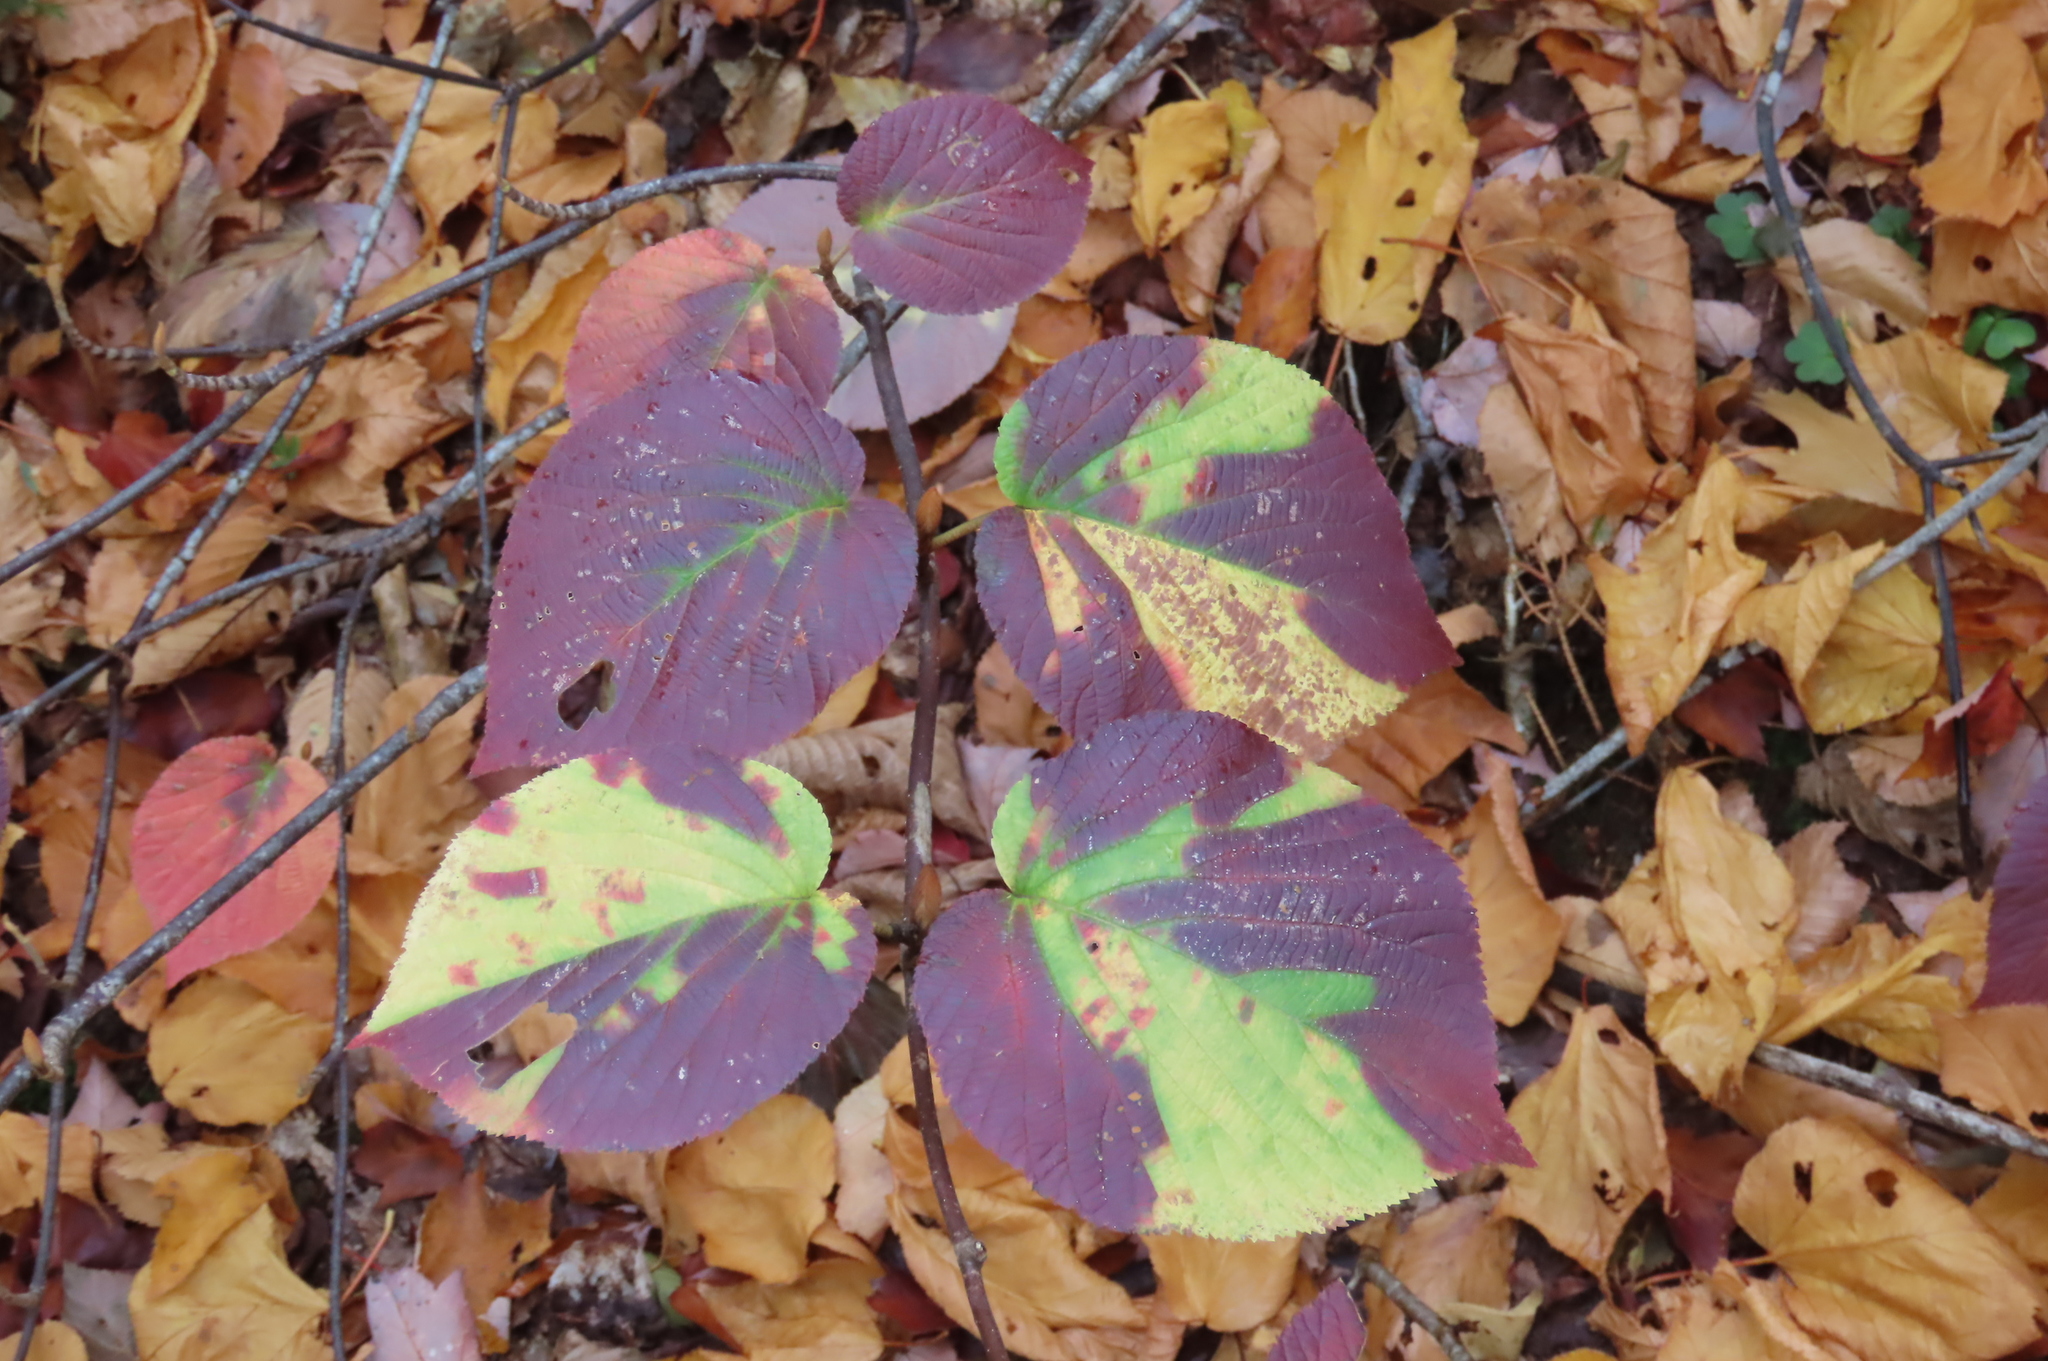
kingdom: Plantae
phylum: Tracheophyta
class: Magnoliopsida
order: Dipsacales
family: Viburnaceae
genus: Viburnum
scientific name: Viburnum lantanoides
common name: Hobblebush
